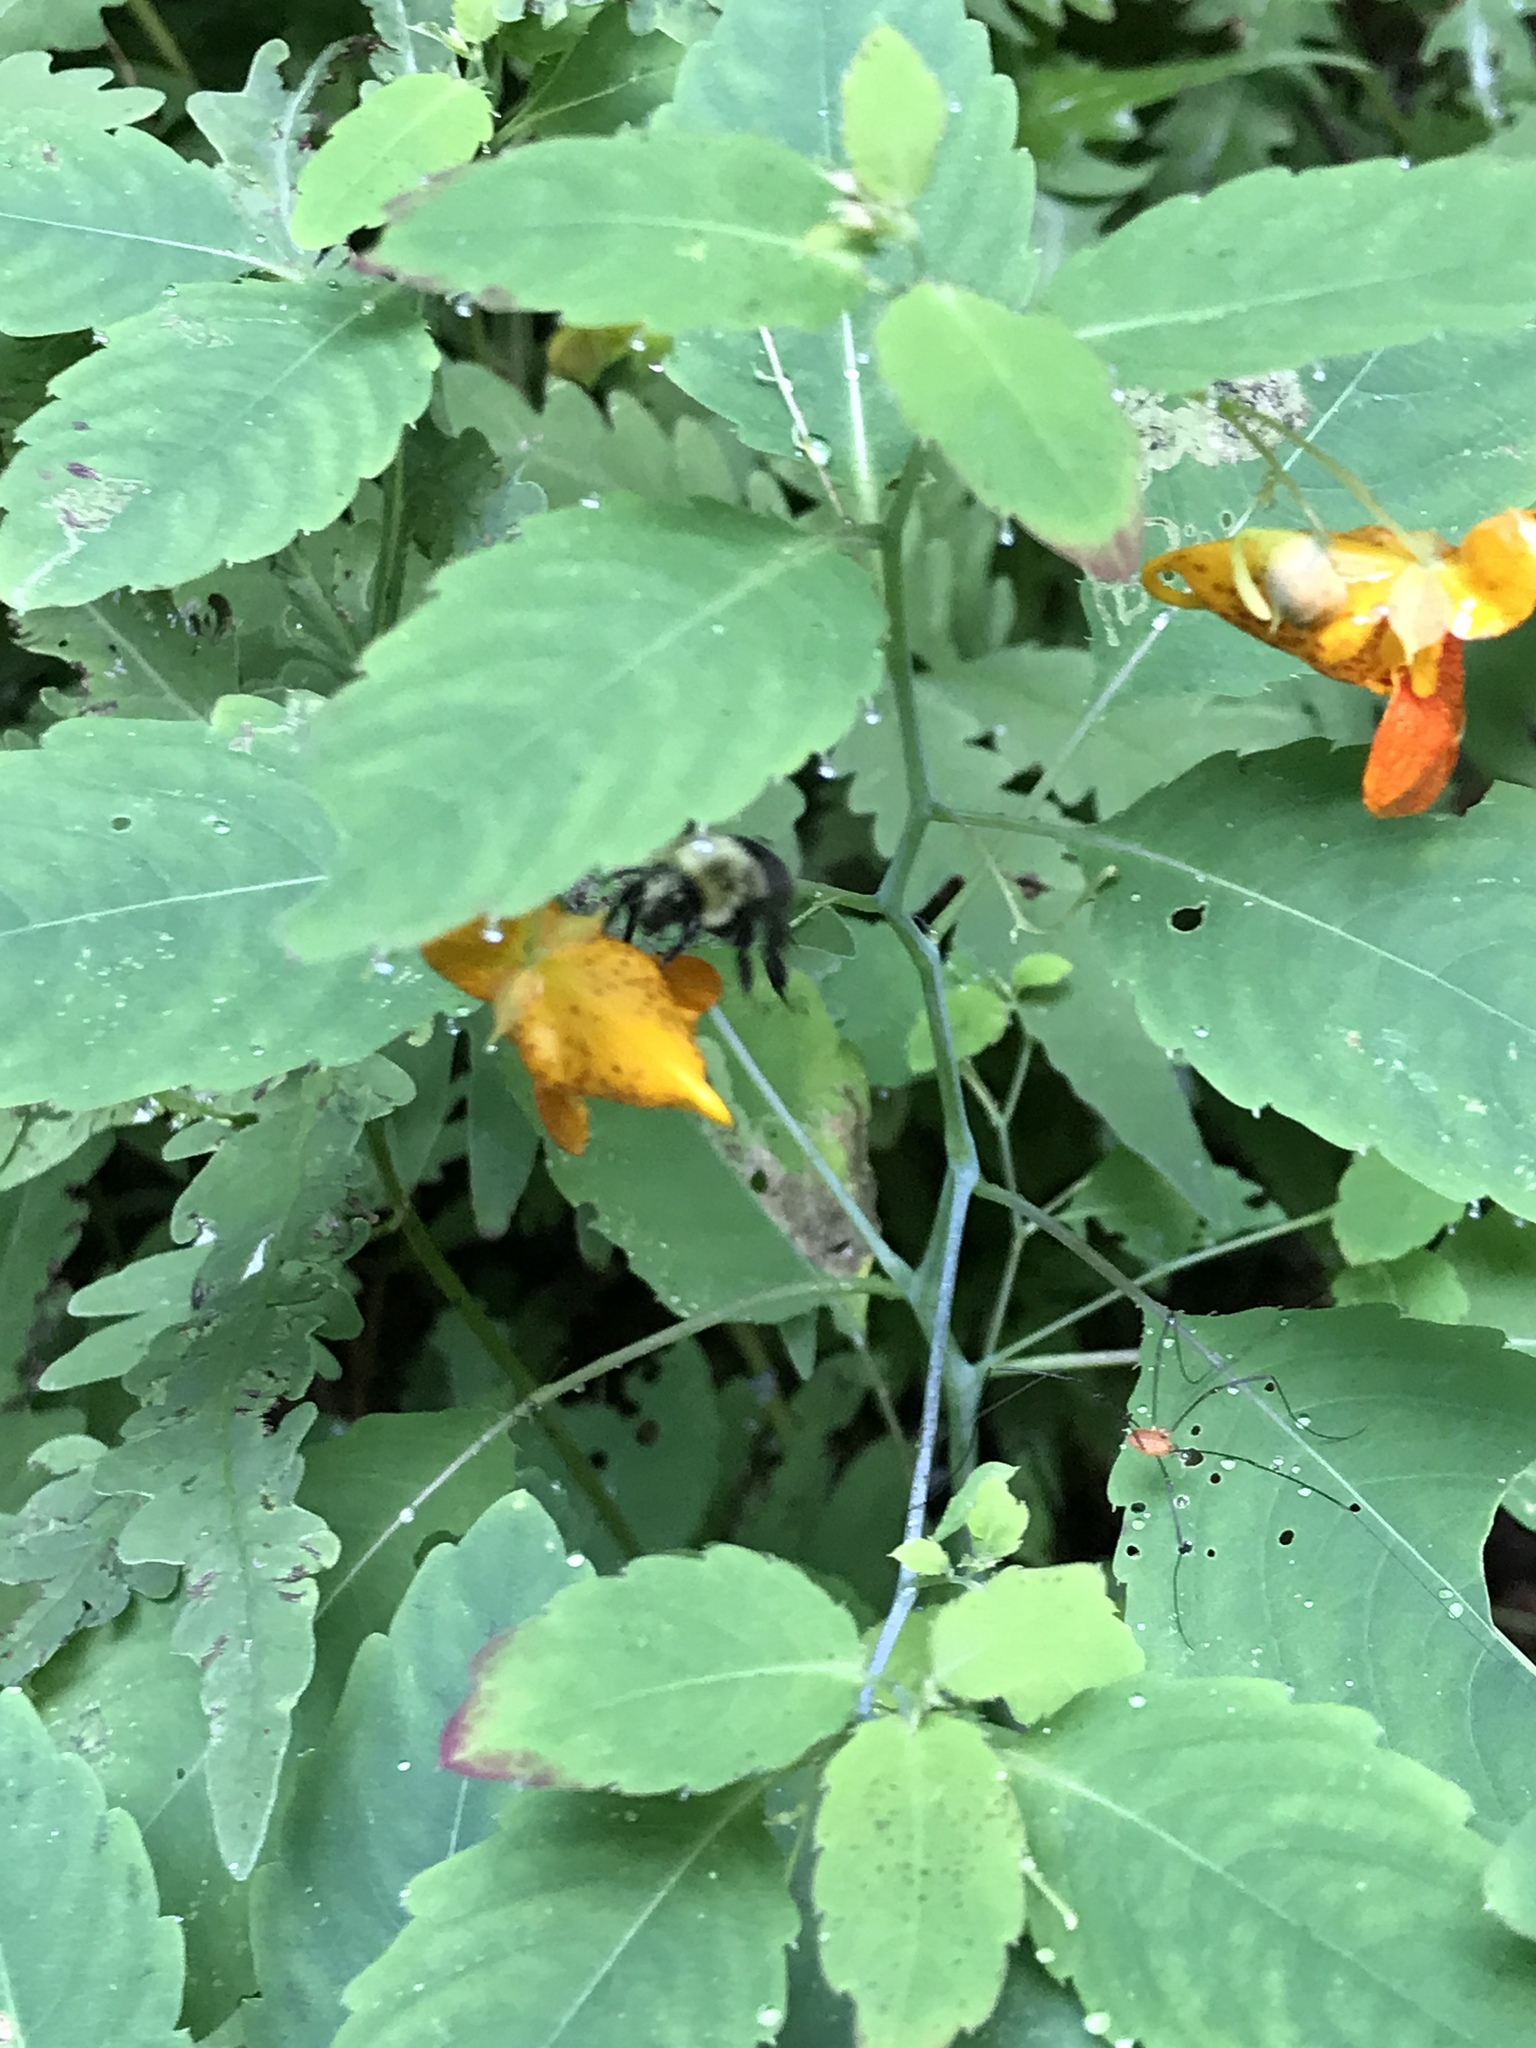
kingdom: Animalia
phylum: Arthropoda
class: Insecta
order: Hymenoptera
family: Apidae
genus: Bombus
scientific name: Bombus impatiens
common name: Common eastern bumble bee
